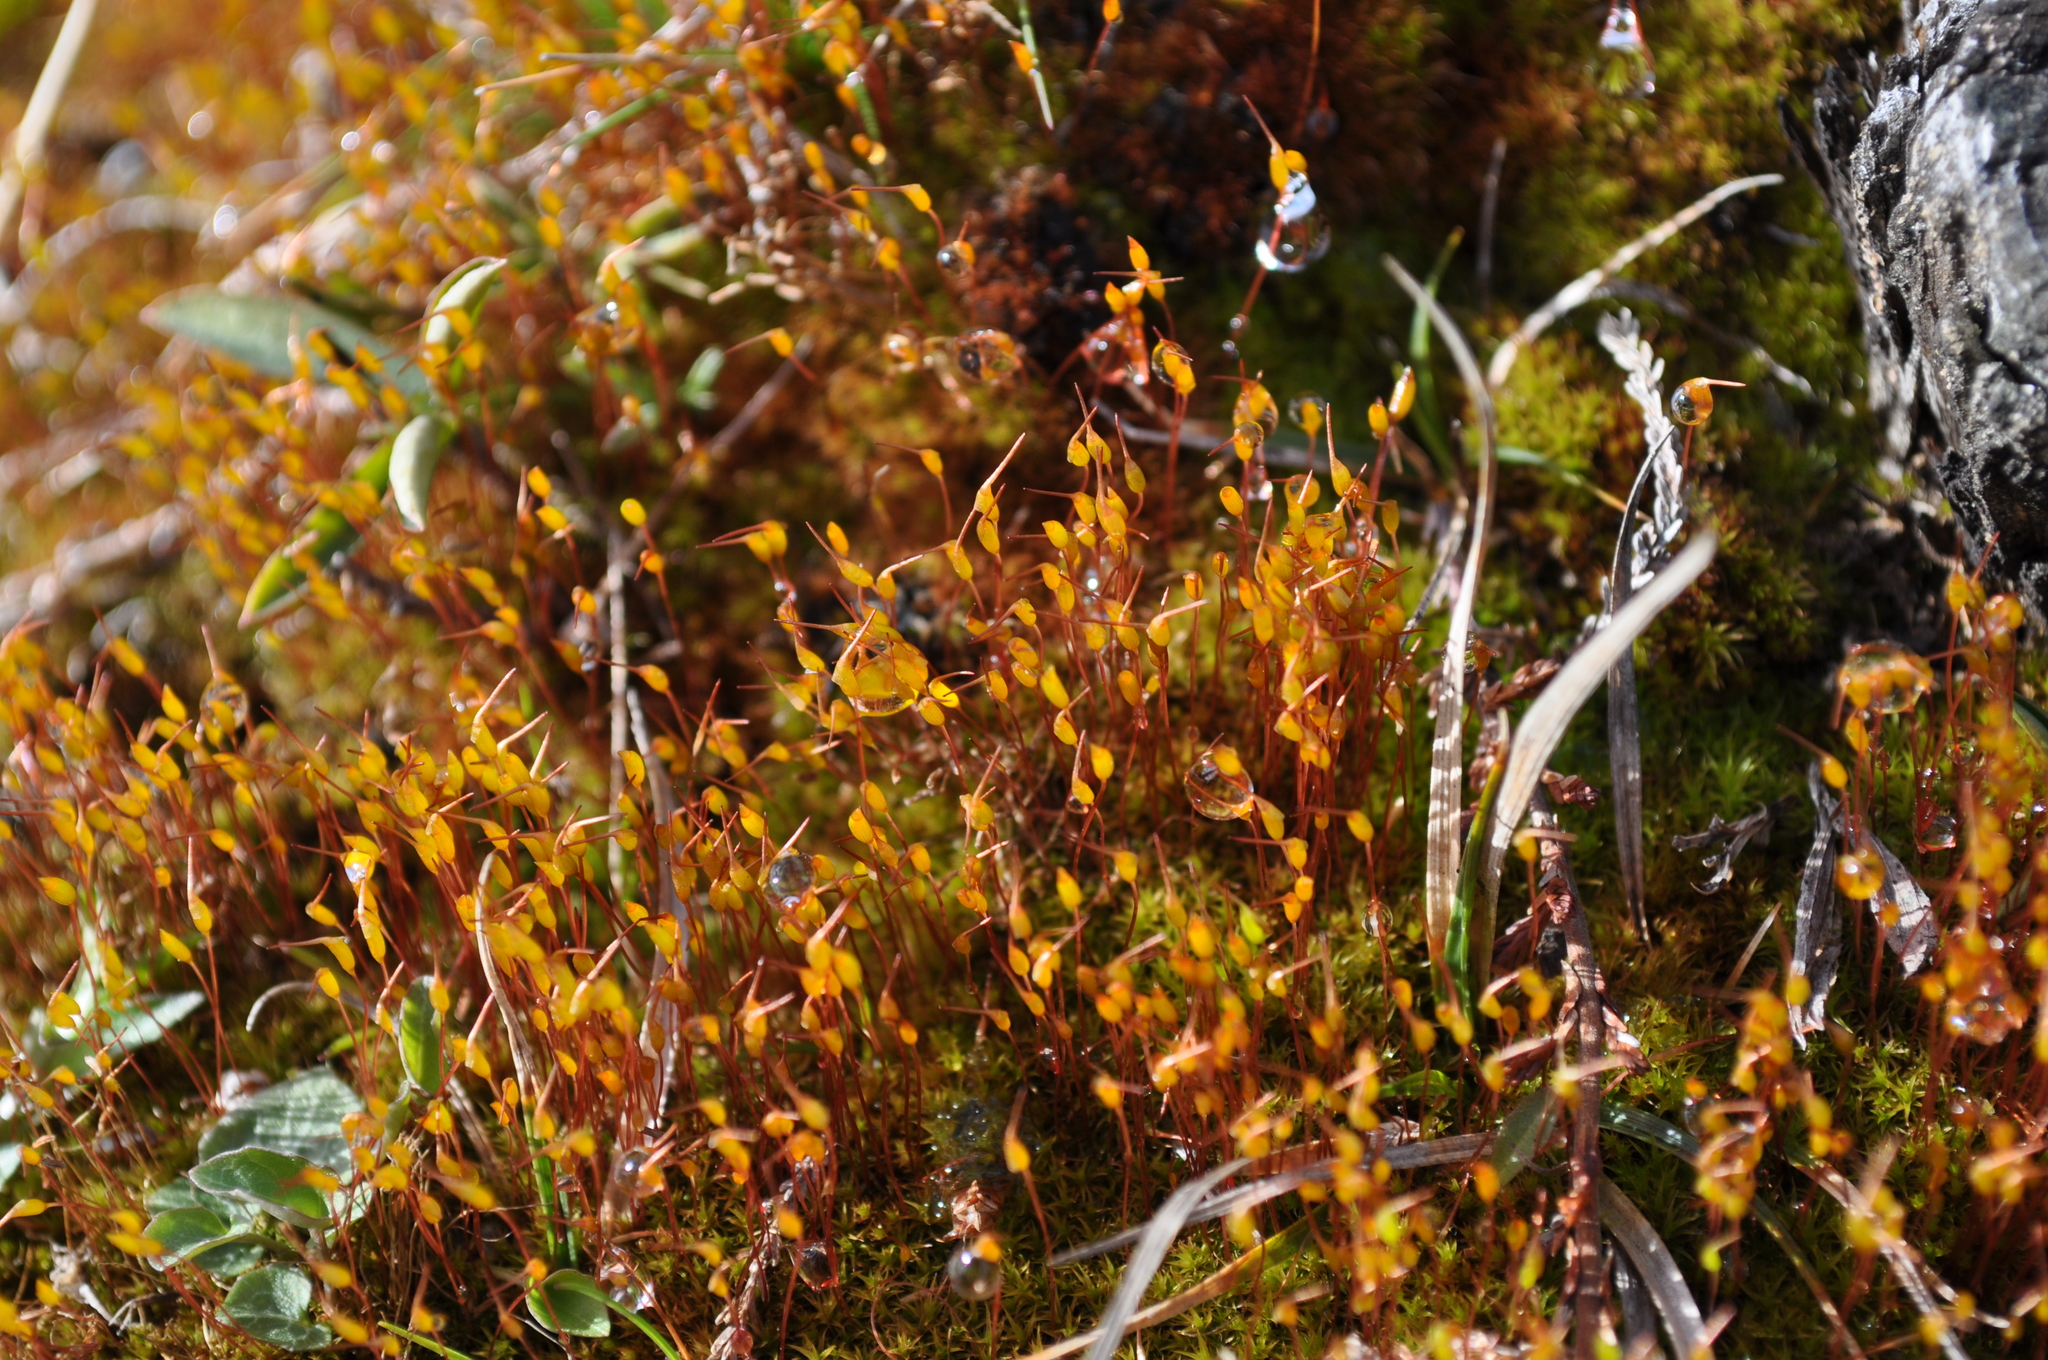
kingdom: Plantae
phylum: Bryophyta
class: Bryopsida
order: Dicranales
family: Ditrichaceae
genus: Ceratodon
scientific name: Ceratodon purpureus
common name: Redshank
